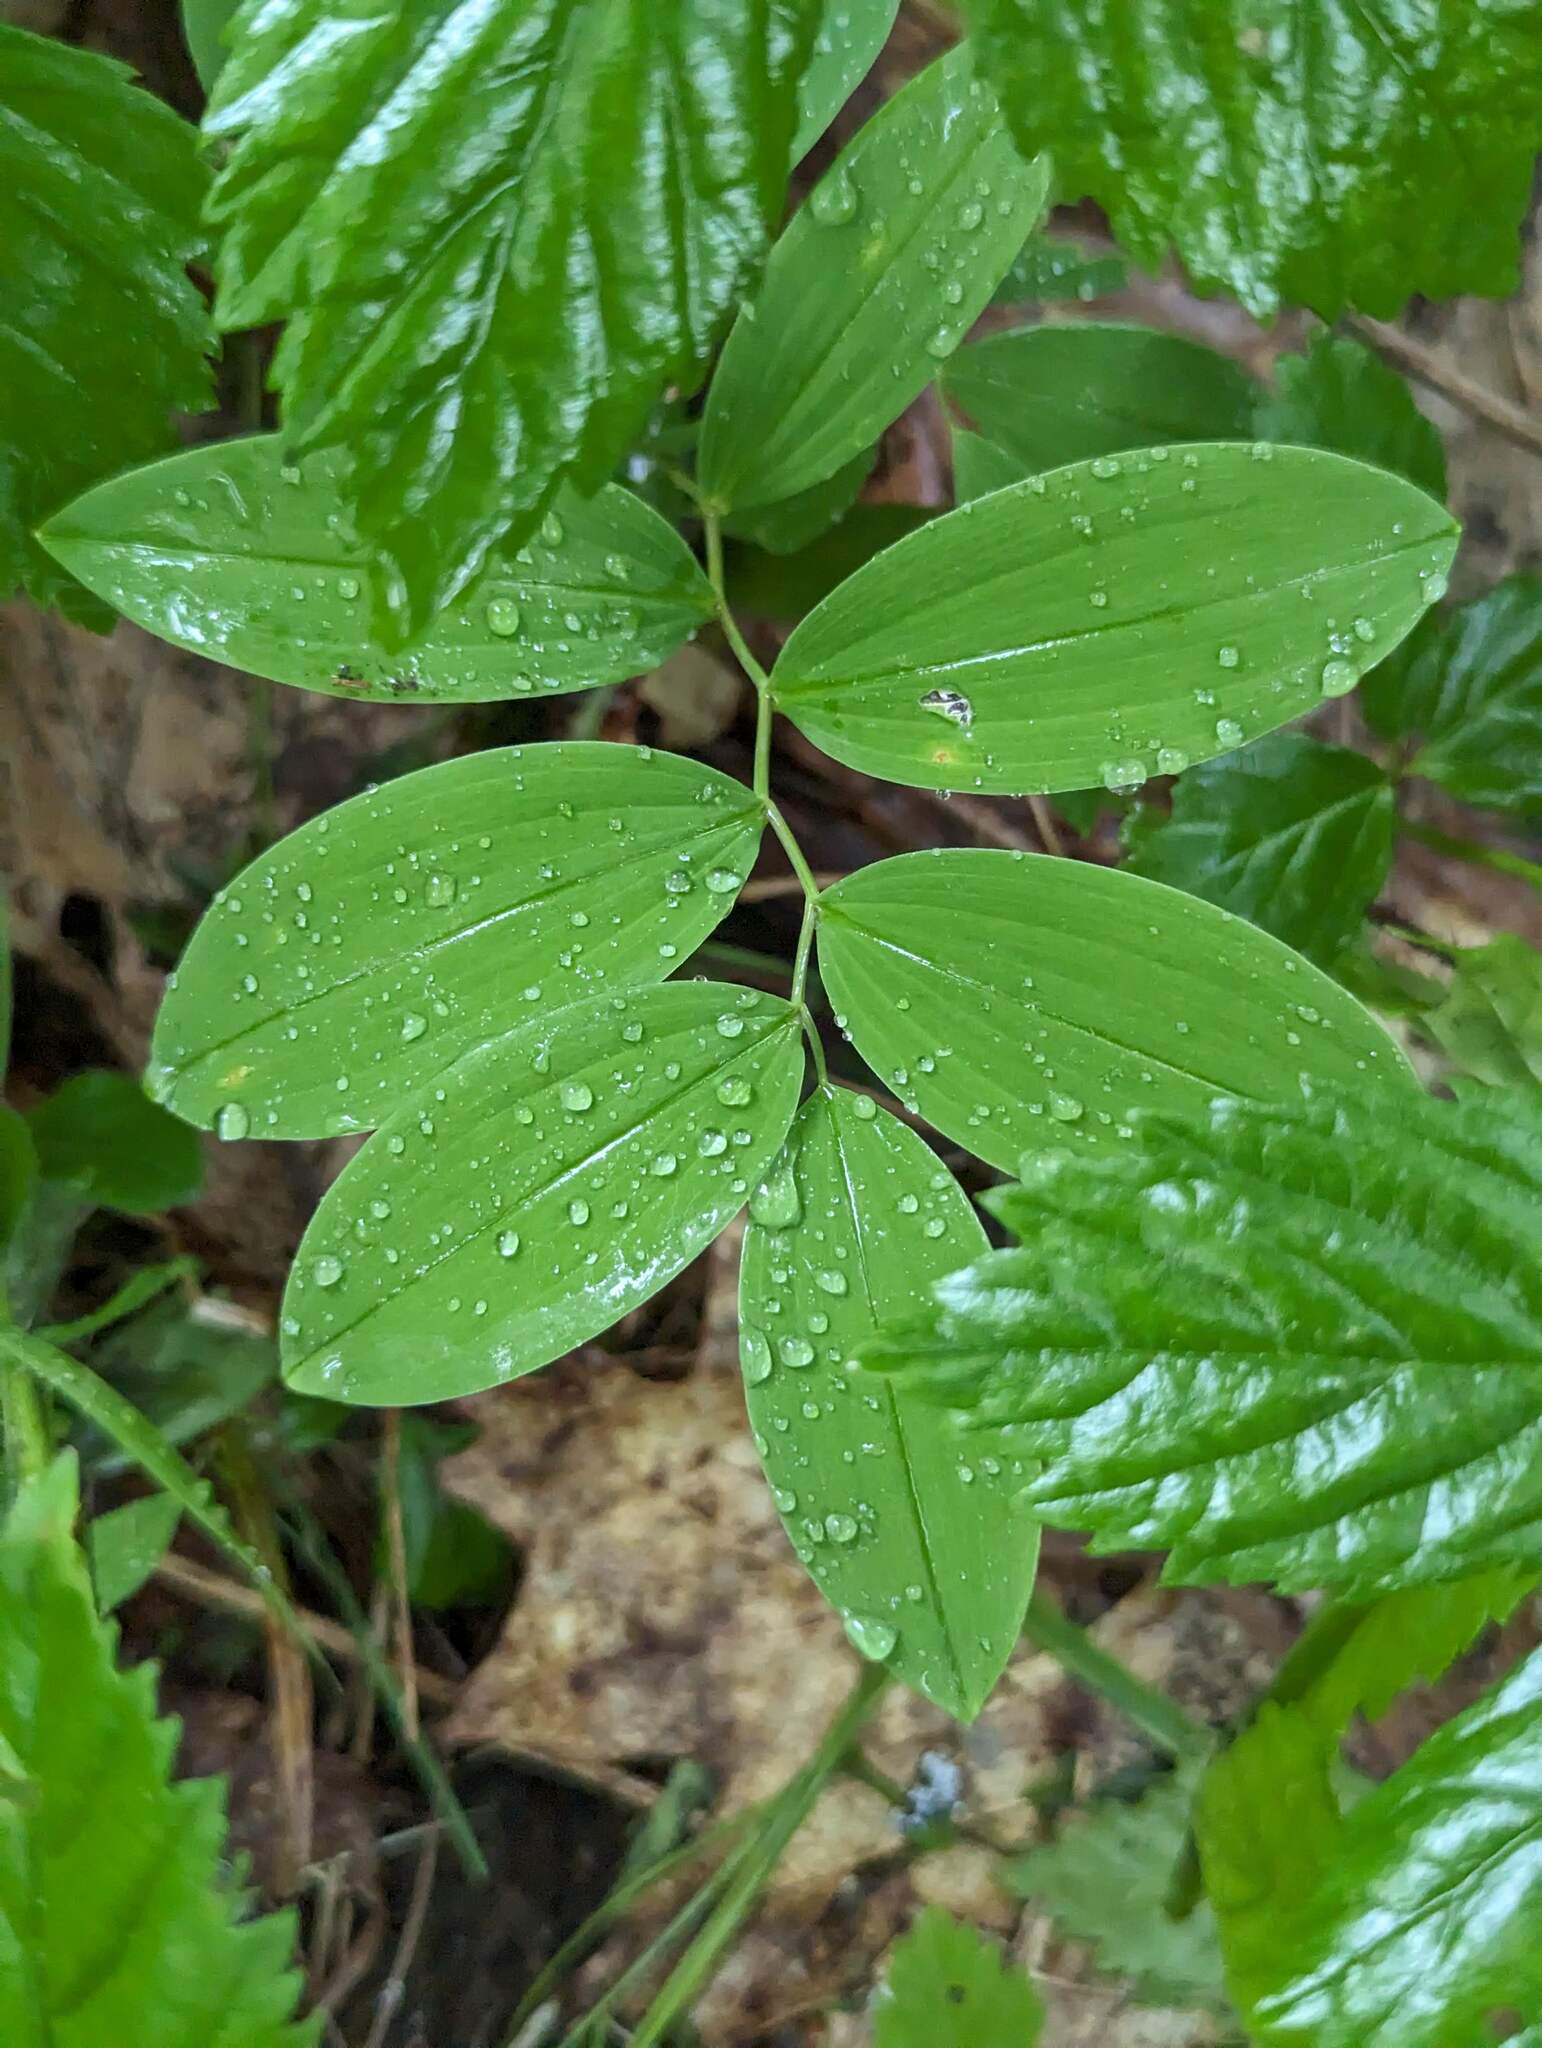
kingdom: Plantae
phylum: Tracheophyta
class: Liliopsida
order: Liliales
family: Colchicaceae
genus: Uvularia
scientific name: Uvularia sessilifolia
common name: Straw-lily
